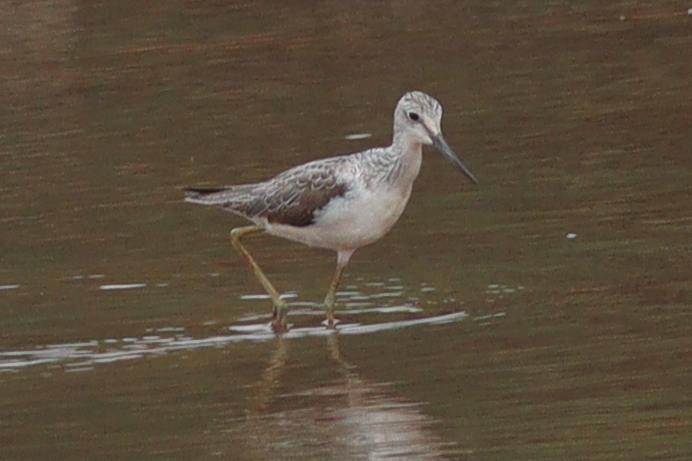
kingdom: Animalia
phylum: Chordata
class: Aves
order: Charadriiformes
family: Scolopacidae
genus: Tringa
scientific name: Tringa nebularia
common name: Common greenshank
